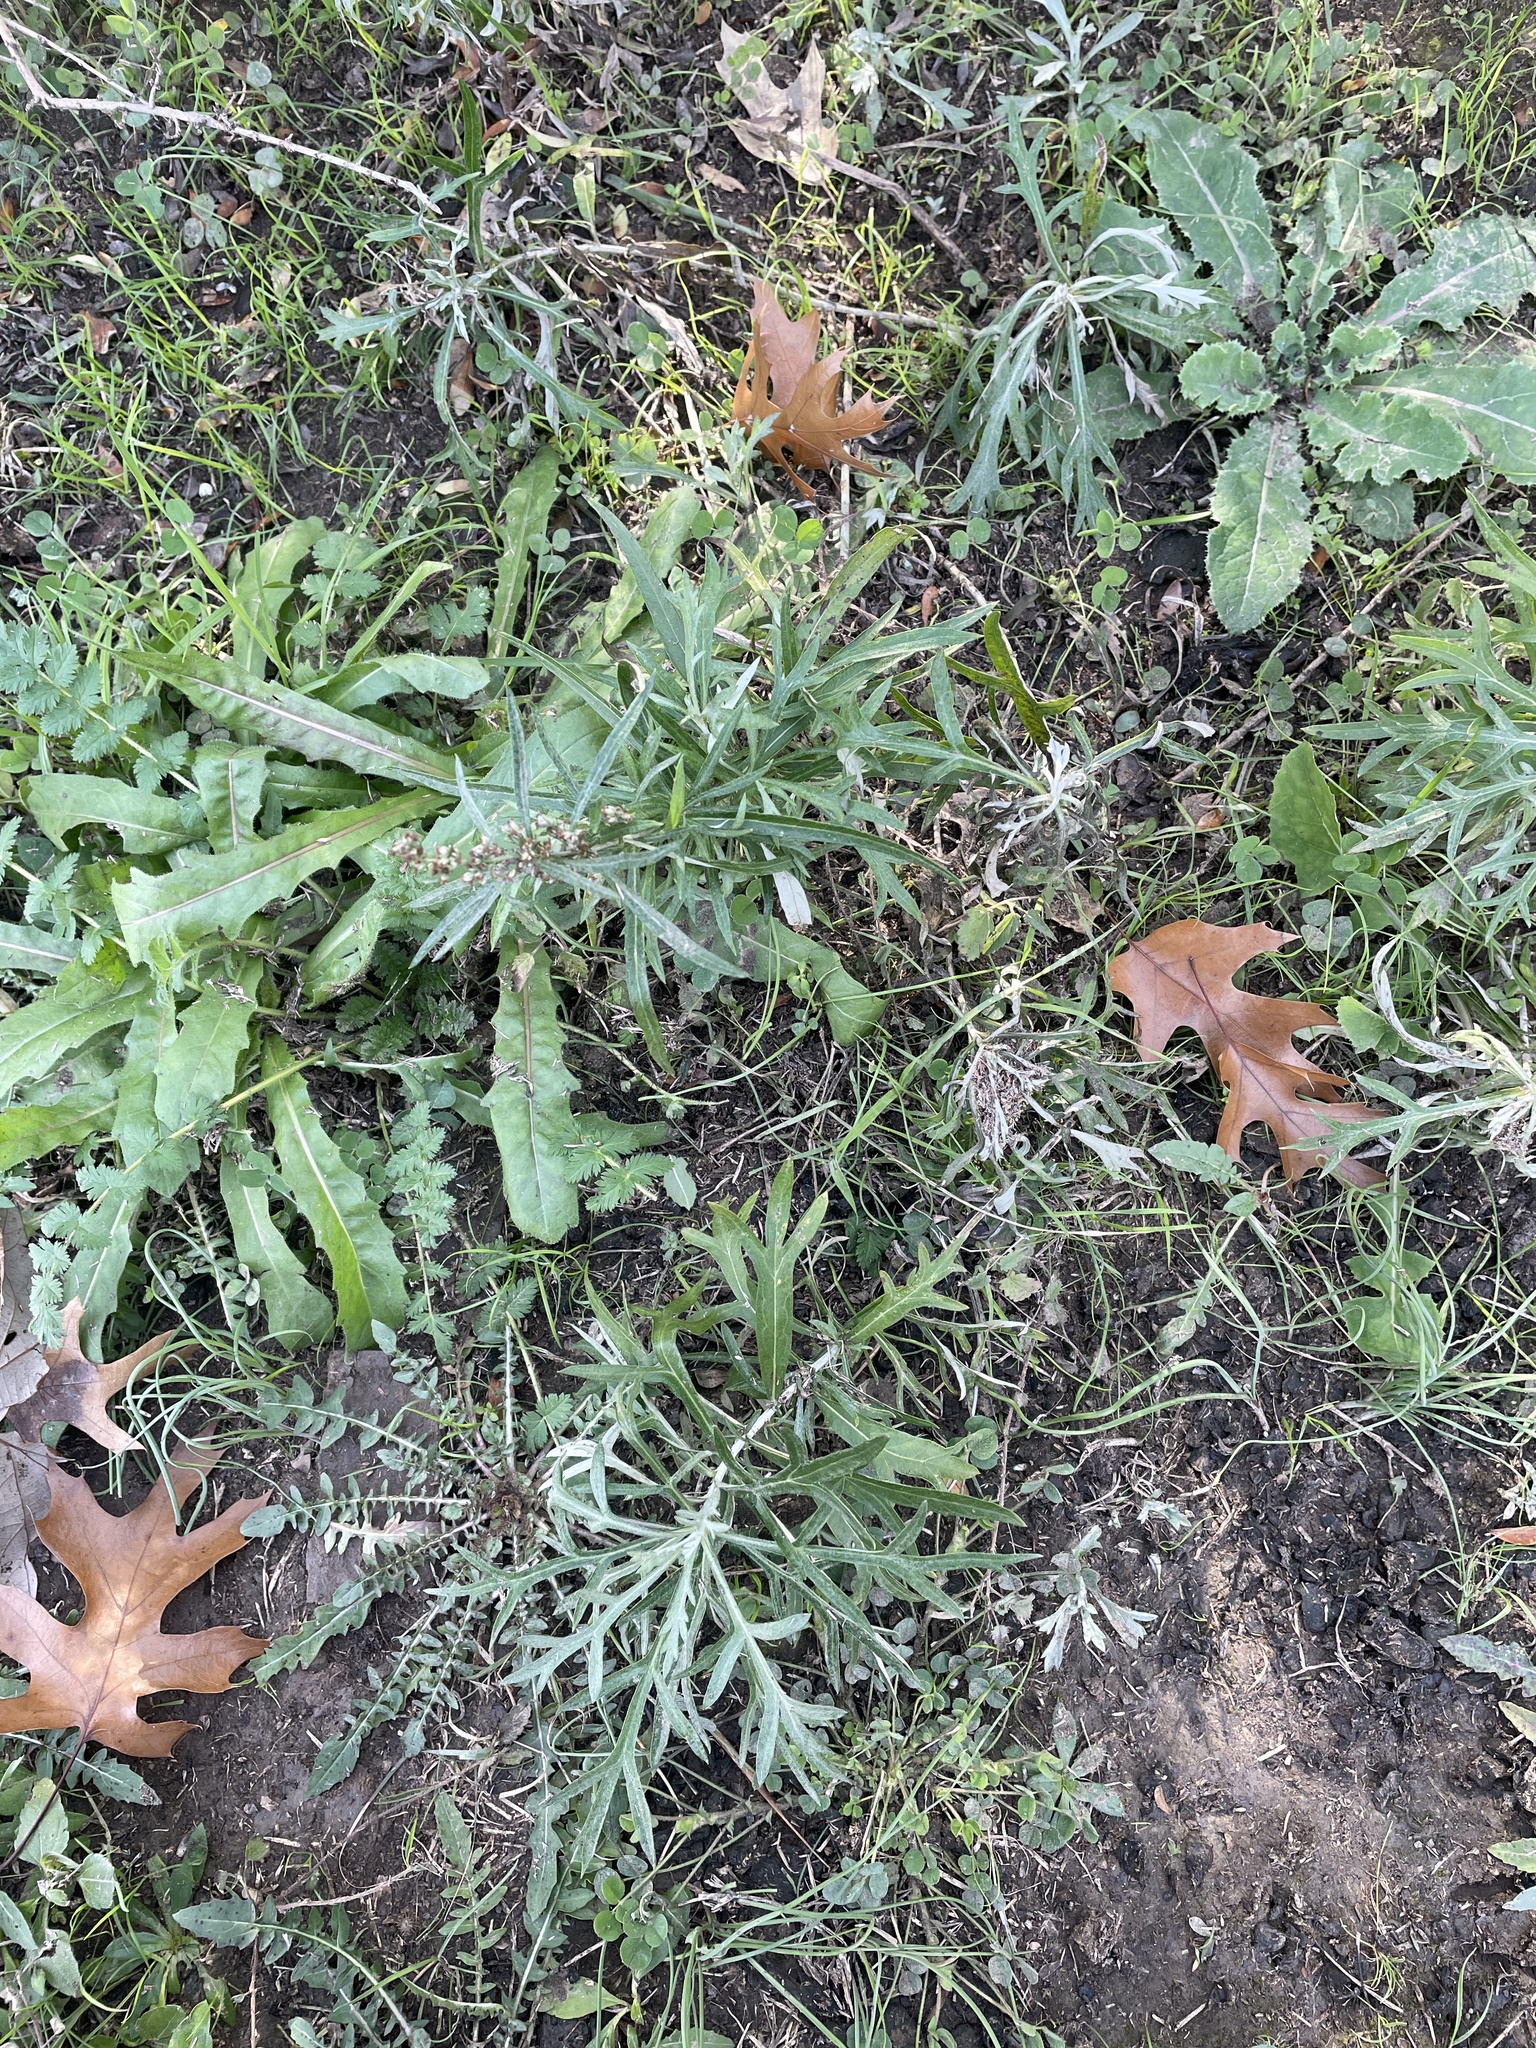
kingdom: Plantae
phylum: Tracheophyta
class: Magnoliopsida
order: Asterales
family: Asteraceae
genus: Artemisia
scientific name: Artemisia ludoviciana
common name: Western mugwort
